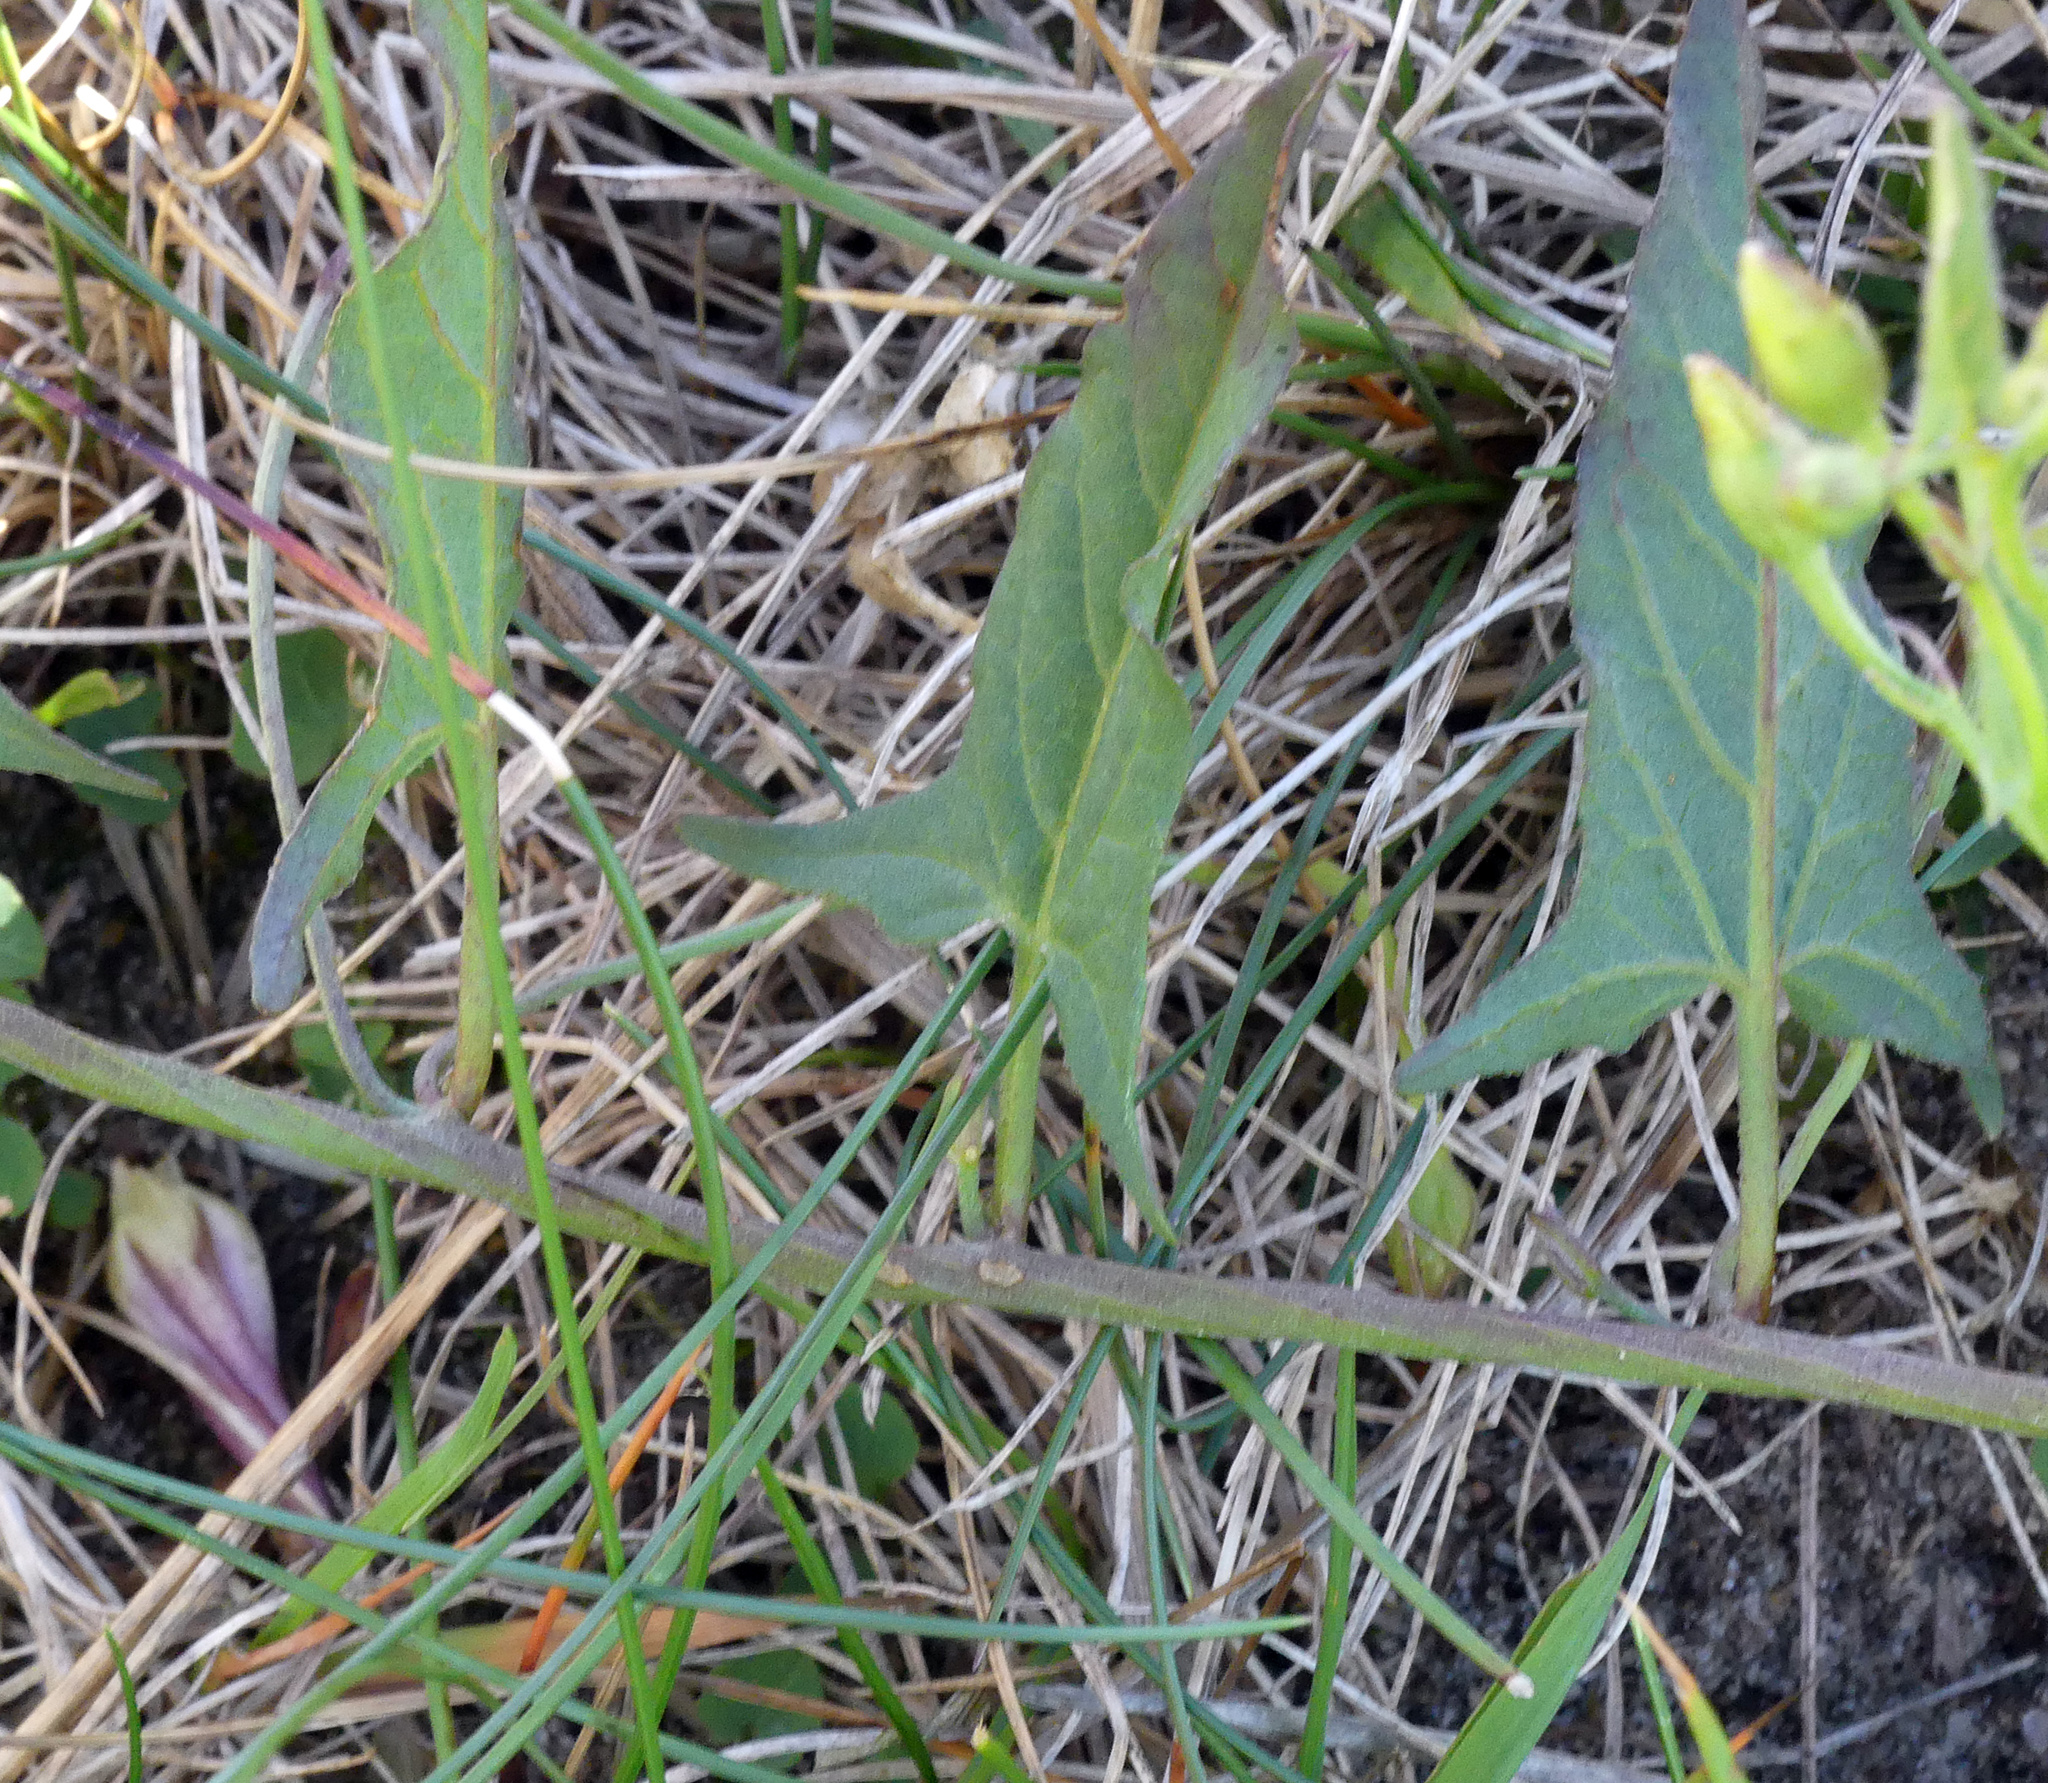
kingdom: Plantae
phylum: Tracheophyta
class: Magnoliopsida
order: Solanales
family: Convolvulaceae
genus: Convolvulus
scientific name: Convolvulus arvensis
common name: Field bindweed
